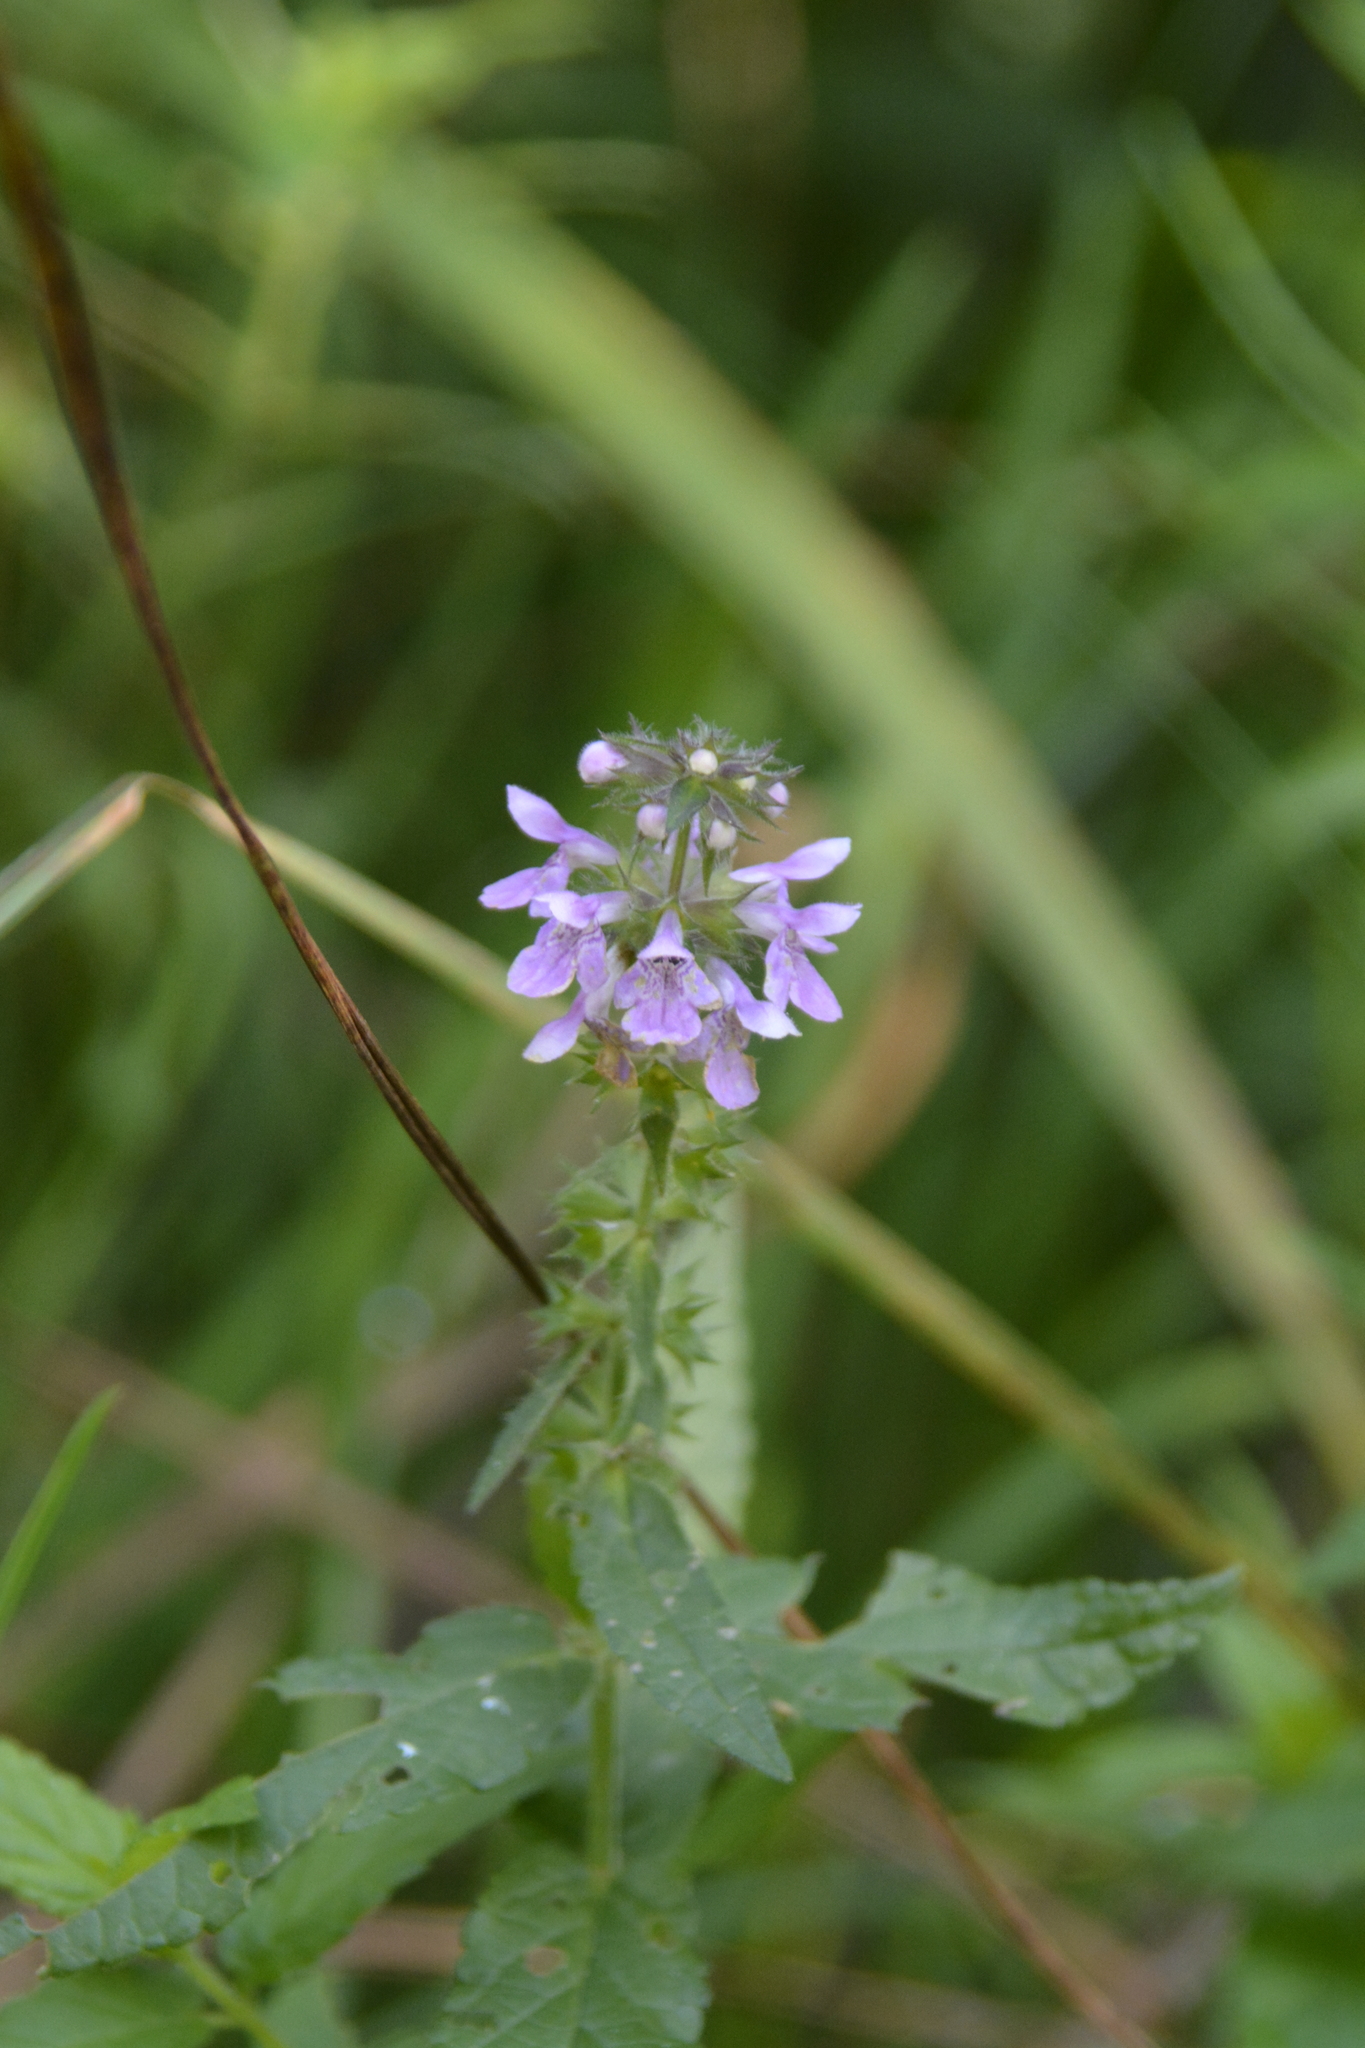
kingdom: Plantae
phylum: Tracheophyta
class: Magnoliopsida
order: Lamiales
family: Lamiaceae
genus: Stachys
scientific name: Stachys palustris
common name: Marsh woundwort
